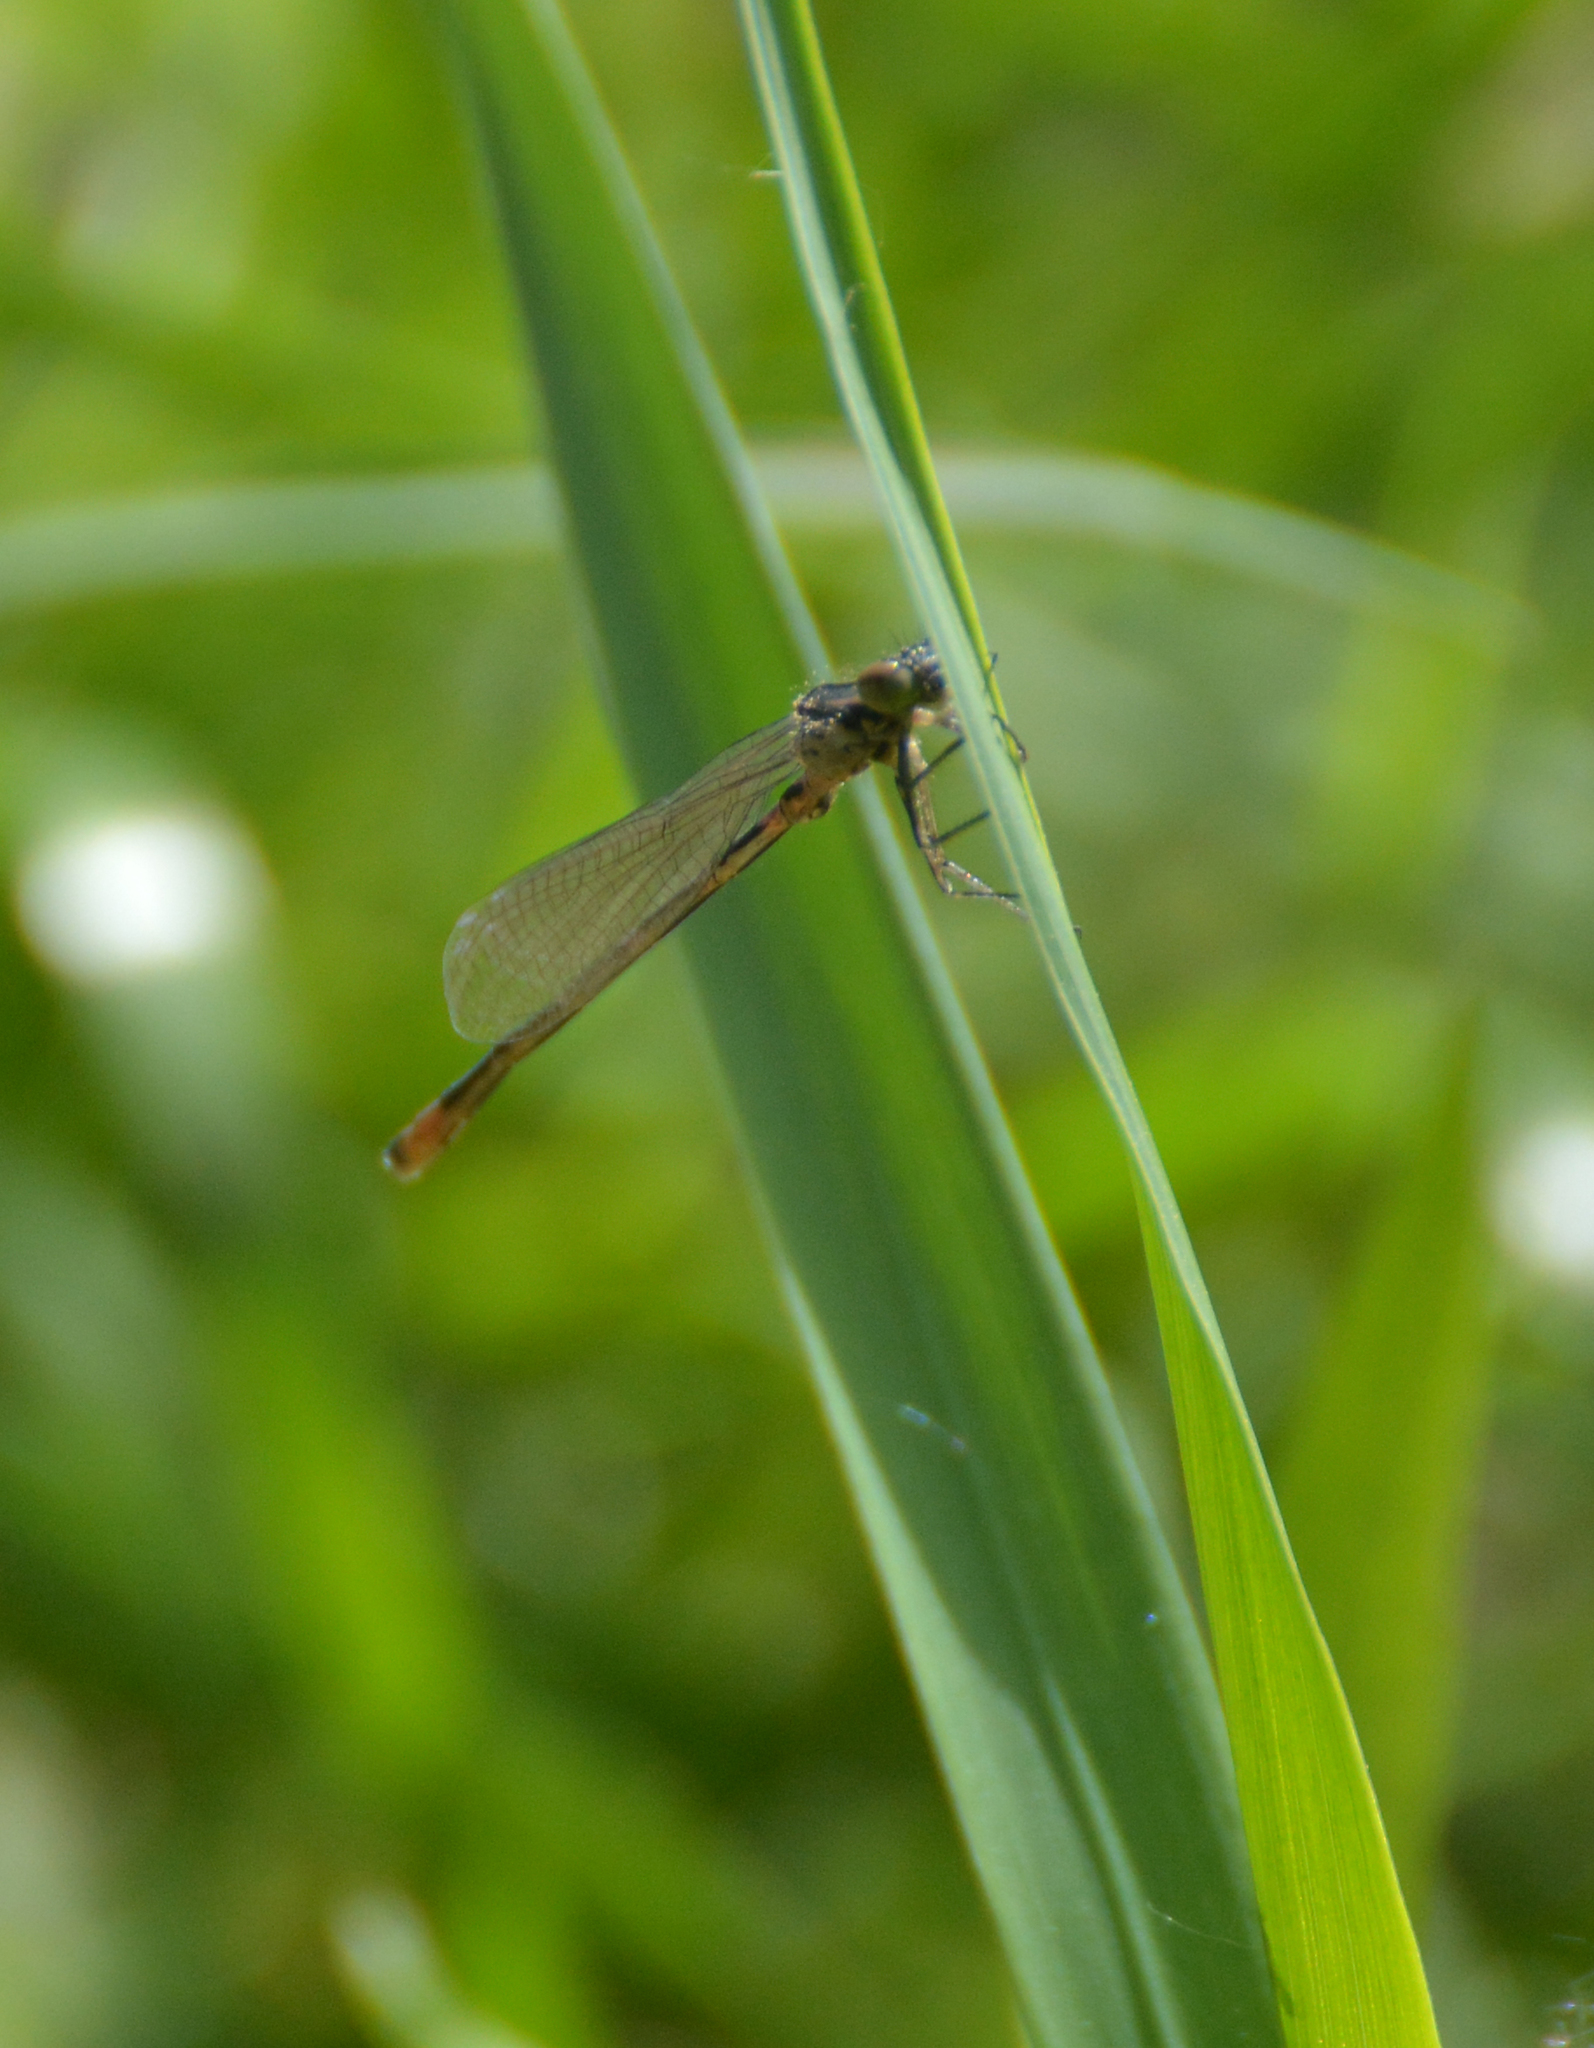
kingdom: Animalia
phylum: Arthropoda
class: Insecta
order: Odonata
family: Coenagrionidae
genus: Coenagrion
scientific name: Coenagrion pulchellum
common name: Variable bluet
